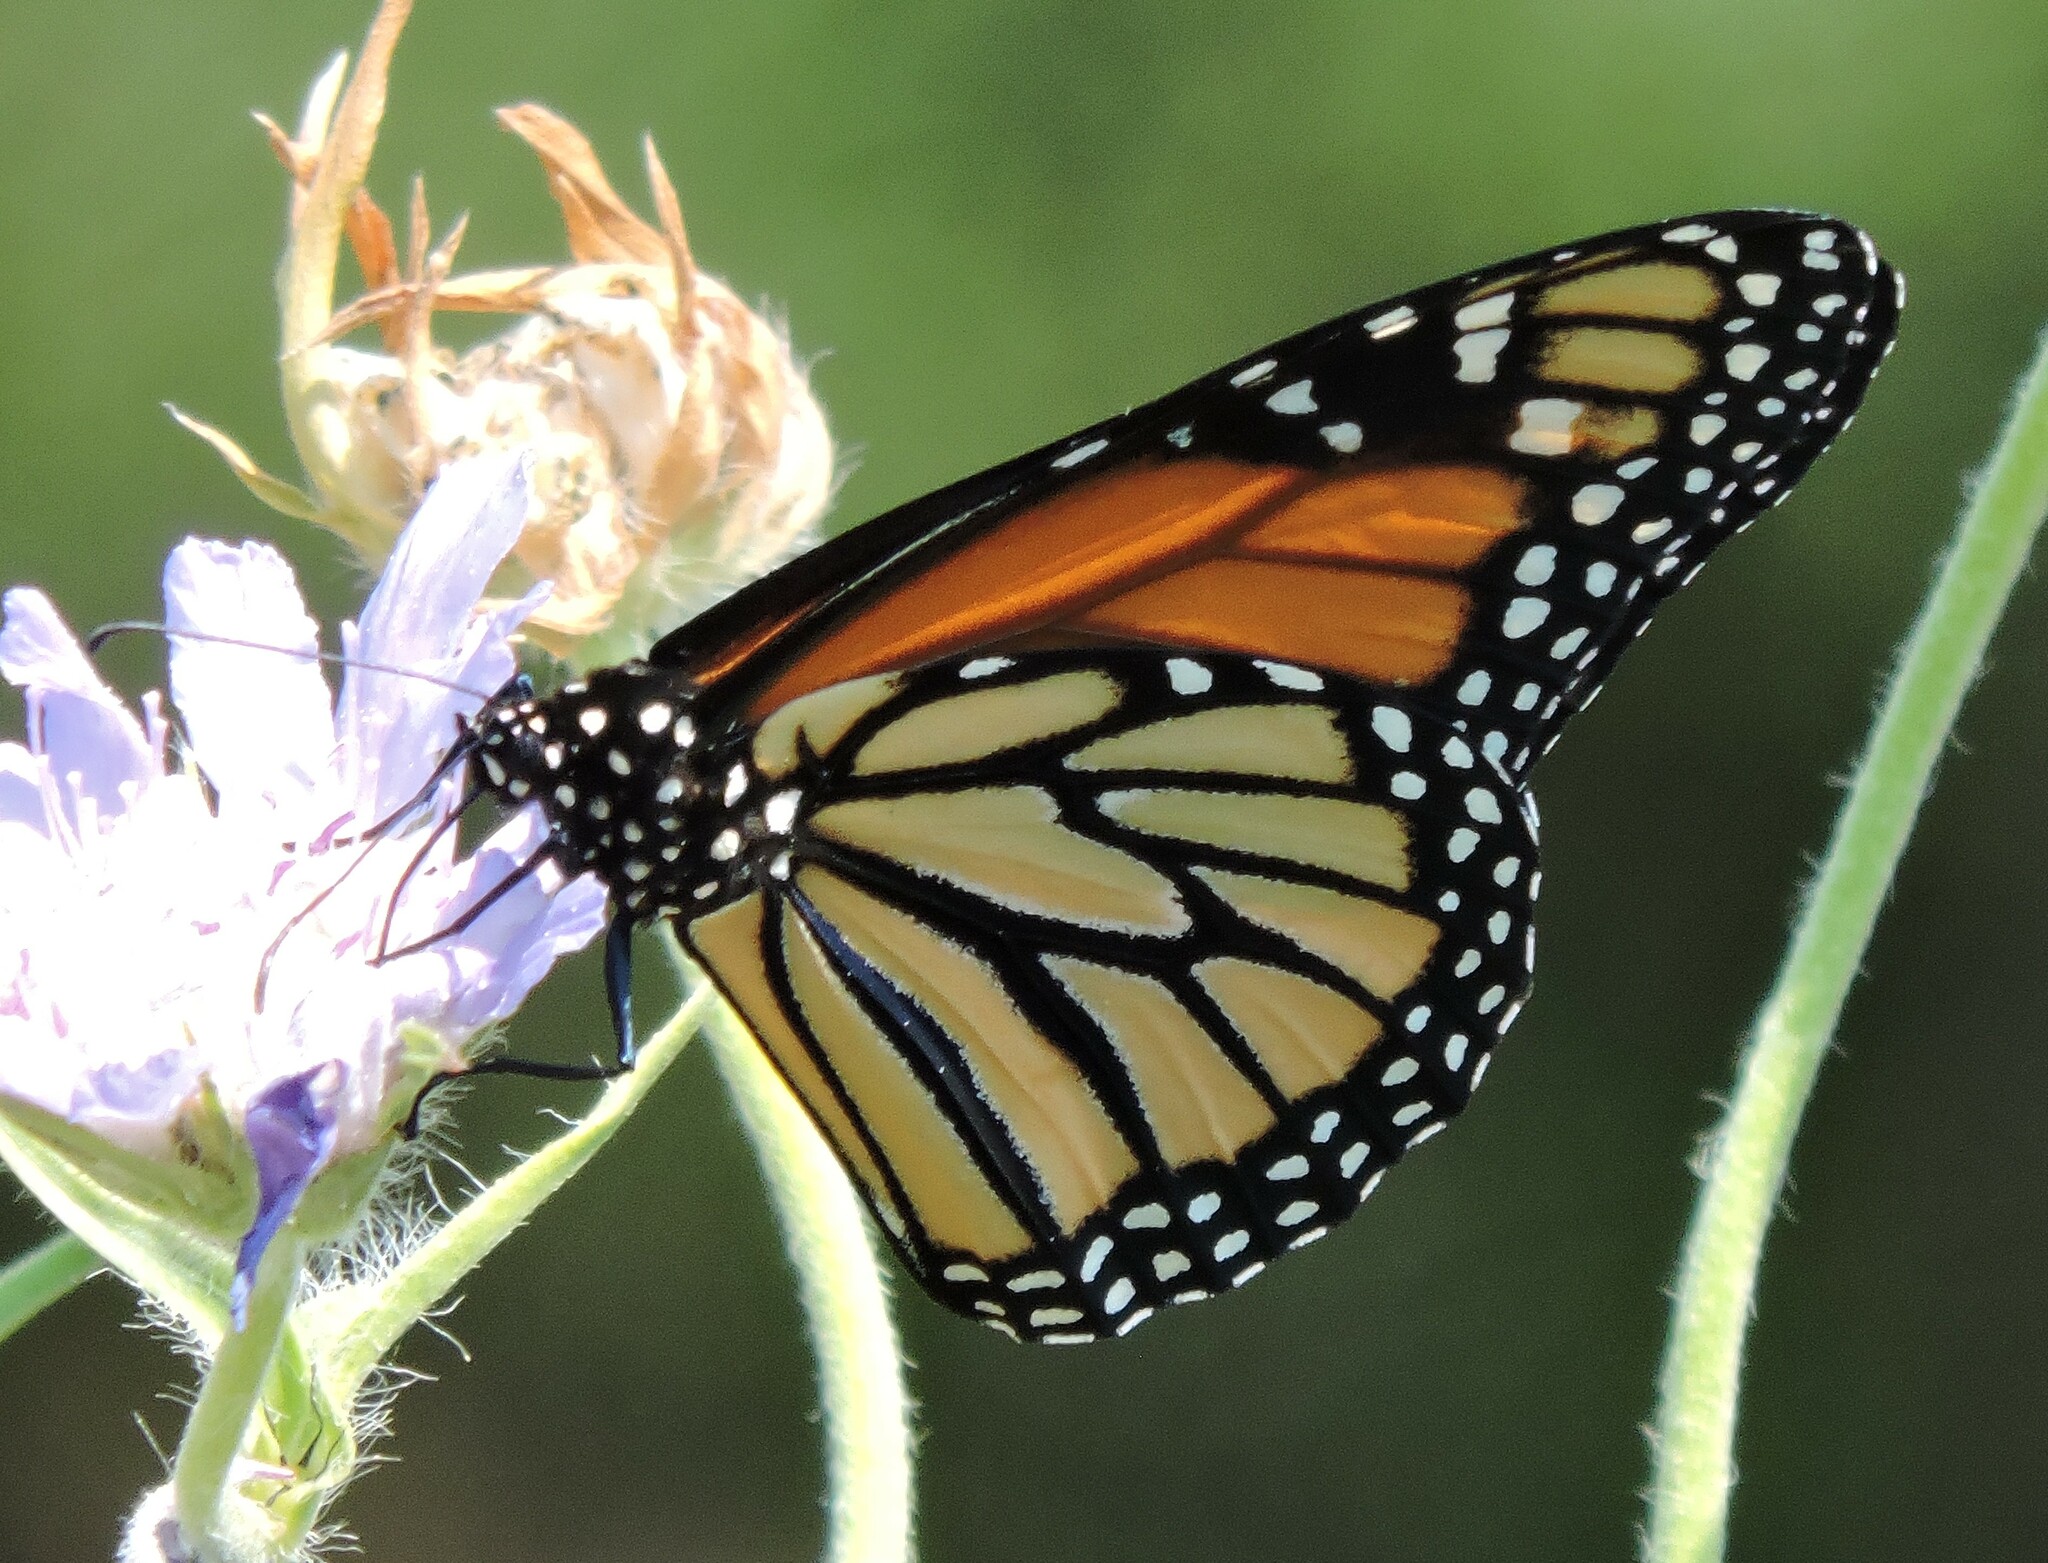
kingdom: Animalia
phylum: Arthropoda
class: Insecta
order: Lepidoptera
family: Nymphalidae
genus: Danaus
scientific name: Danaus plexippus
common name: Monarch
